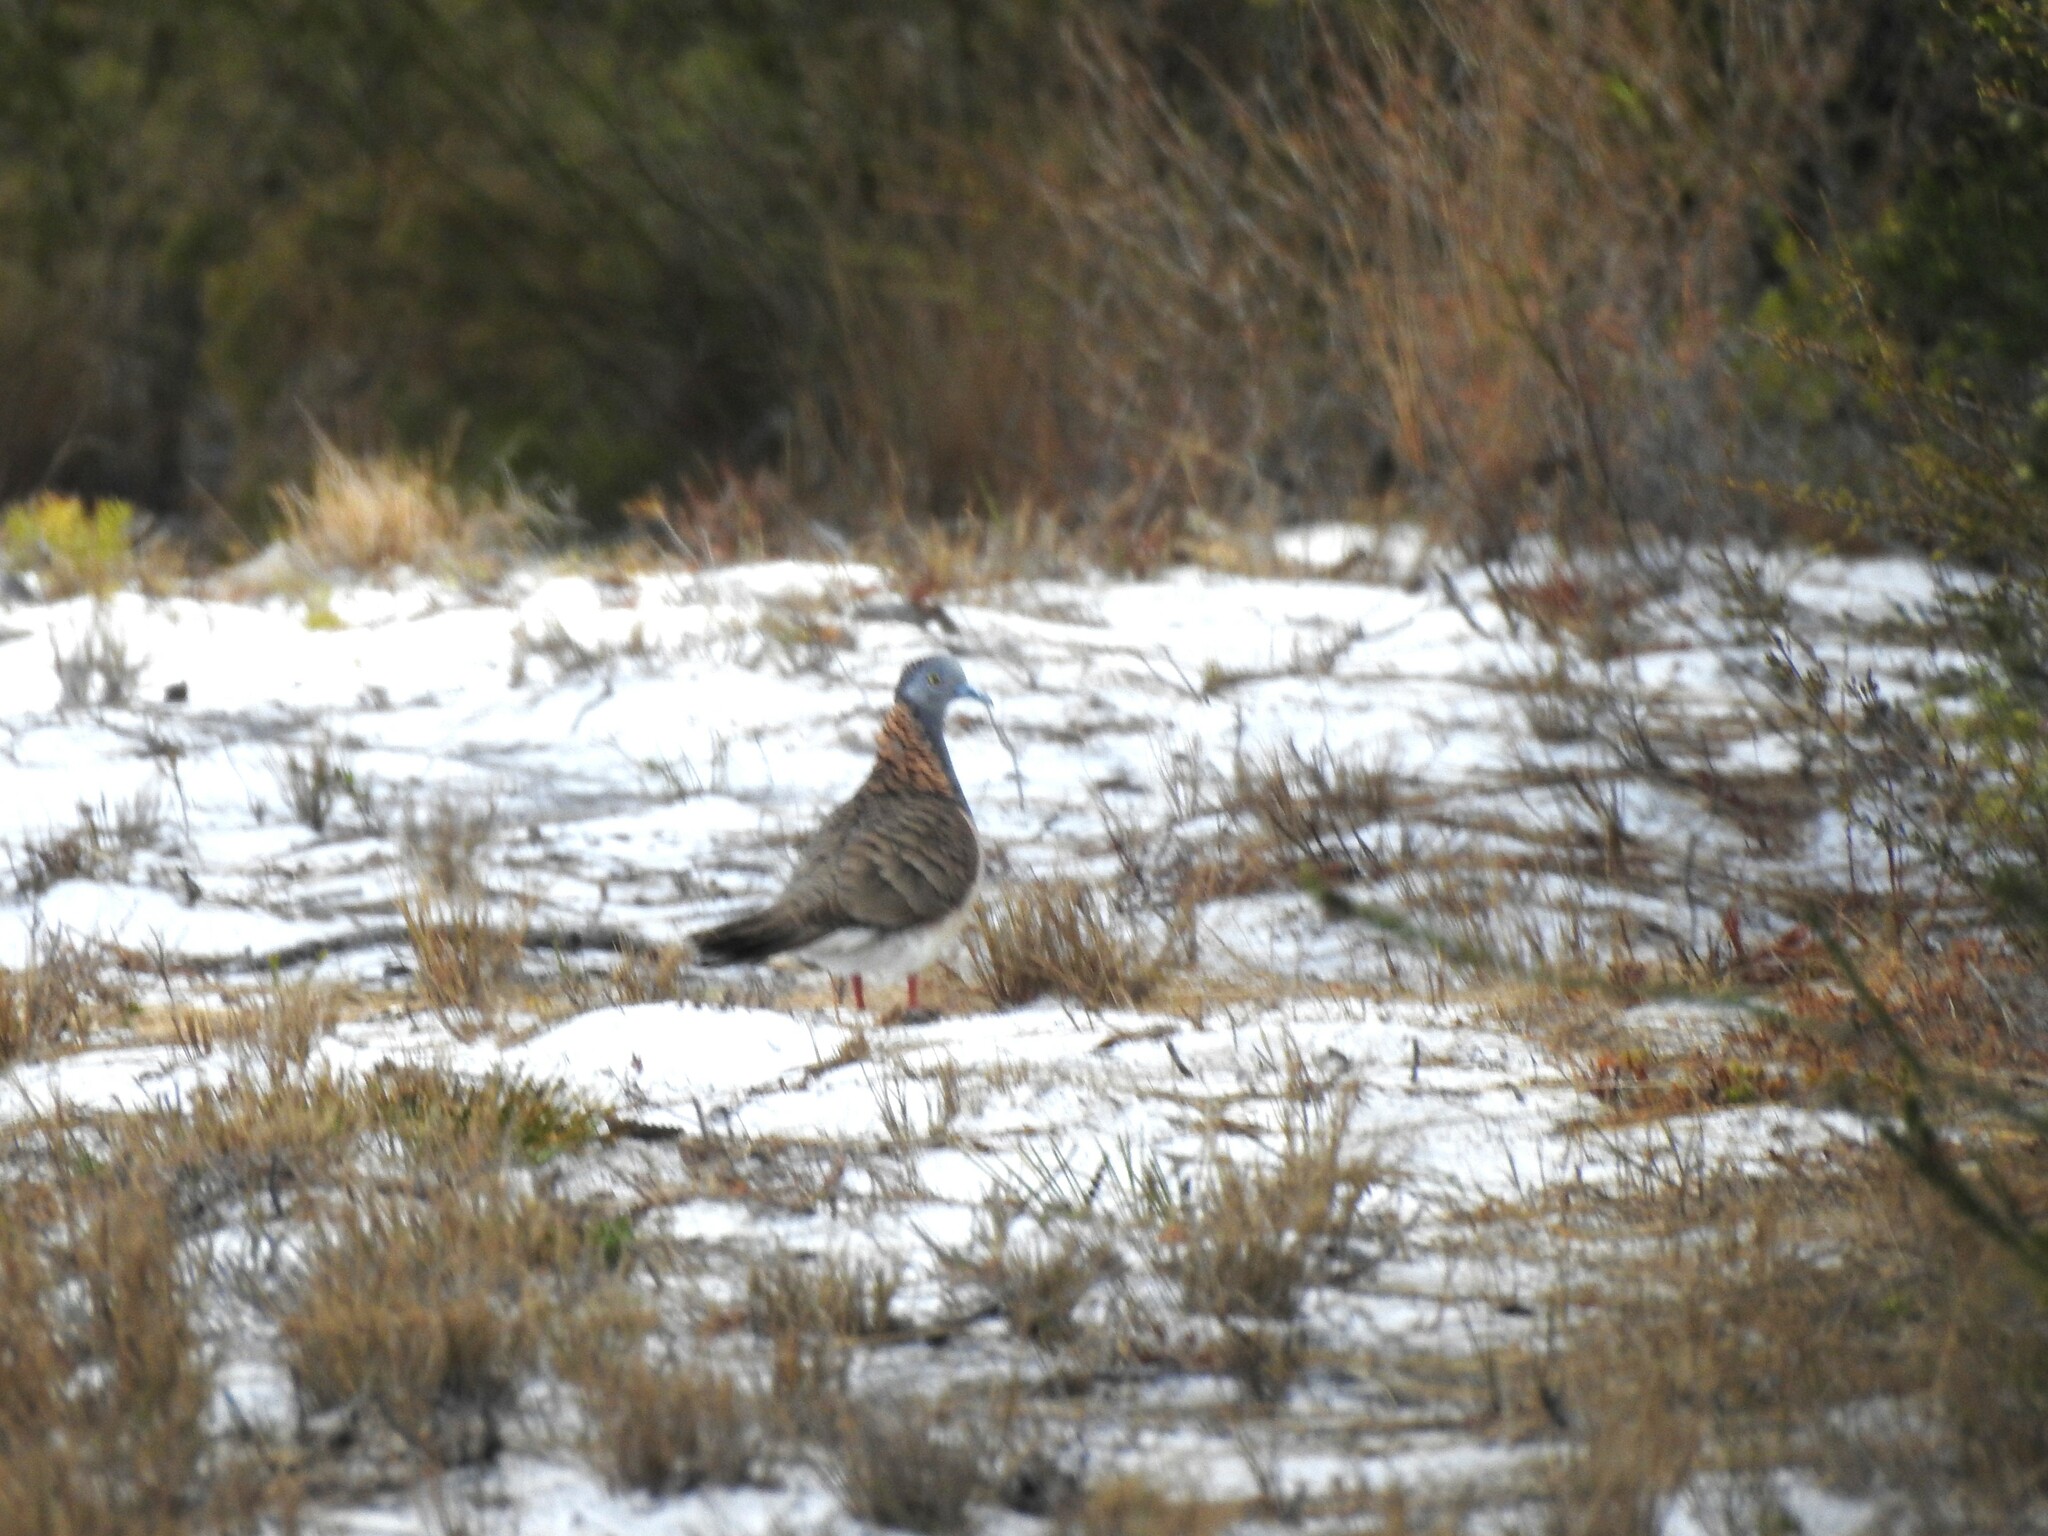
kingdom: Animalia
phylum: Chordata
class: Aves
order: Columbiformes
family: Columbidae
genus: Geopelia
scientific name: Geopelia humeralis
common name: Bar-shouldered dove
